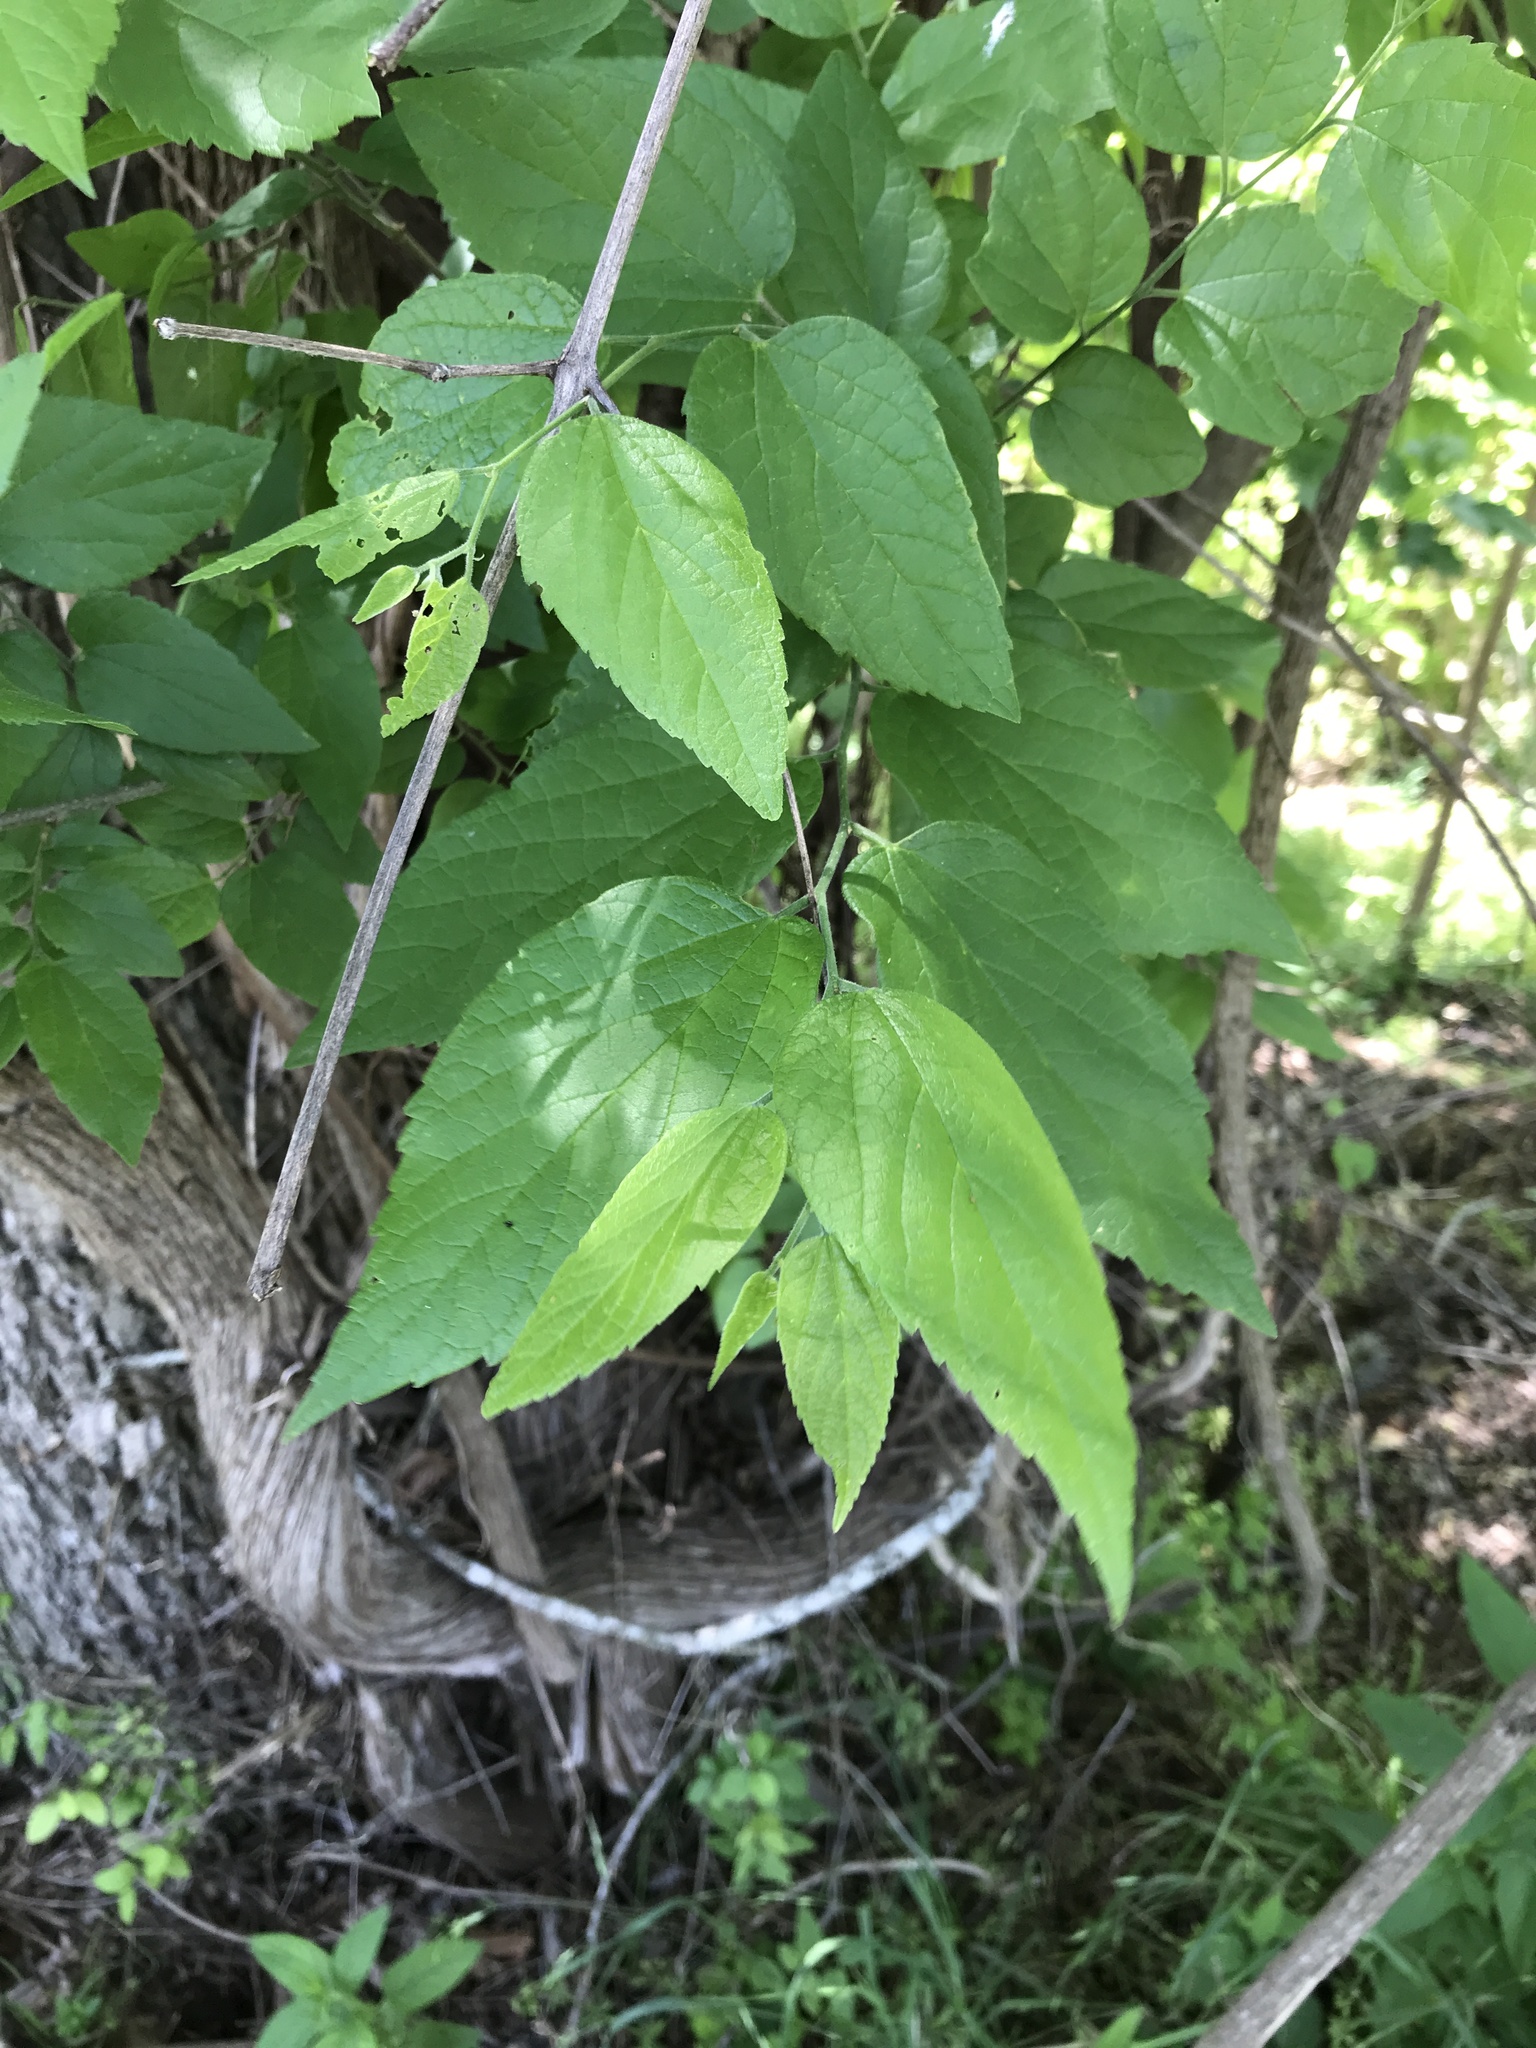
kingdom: Plantae
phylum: Tracheophyta
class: Magnoliopsida
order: Rosales
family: Cannabaceae
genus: Celtis
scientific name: Celtis laevigata
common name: Sugarberry
